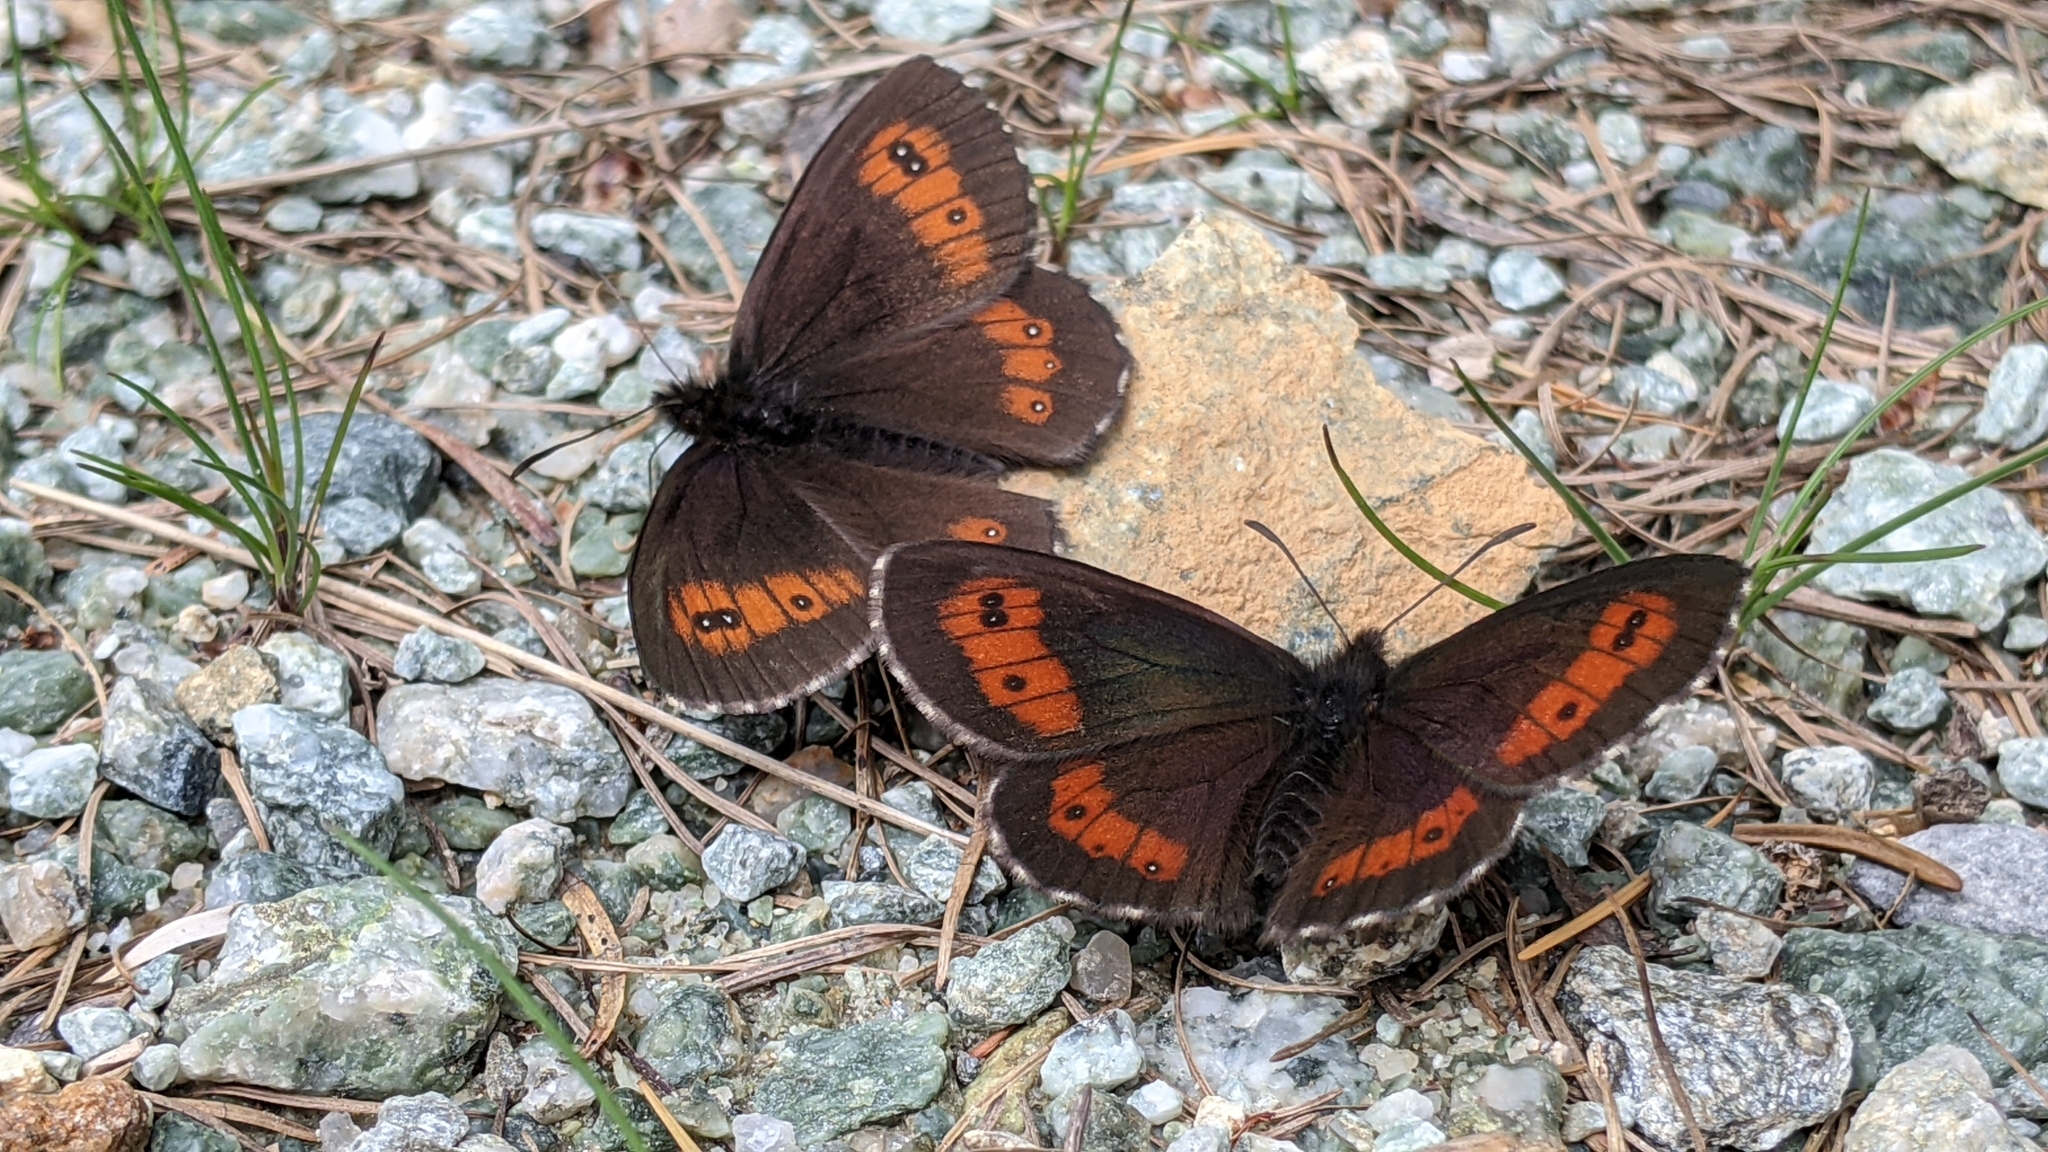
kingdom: Animalia
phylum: Arthropoda
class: Insecta
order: Lepidoptera
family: Nymphalidae
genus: Erebia
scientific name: Erebia euryale
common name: Large ringlet
